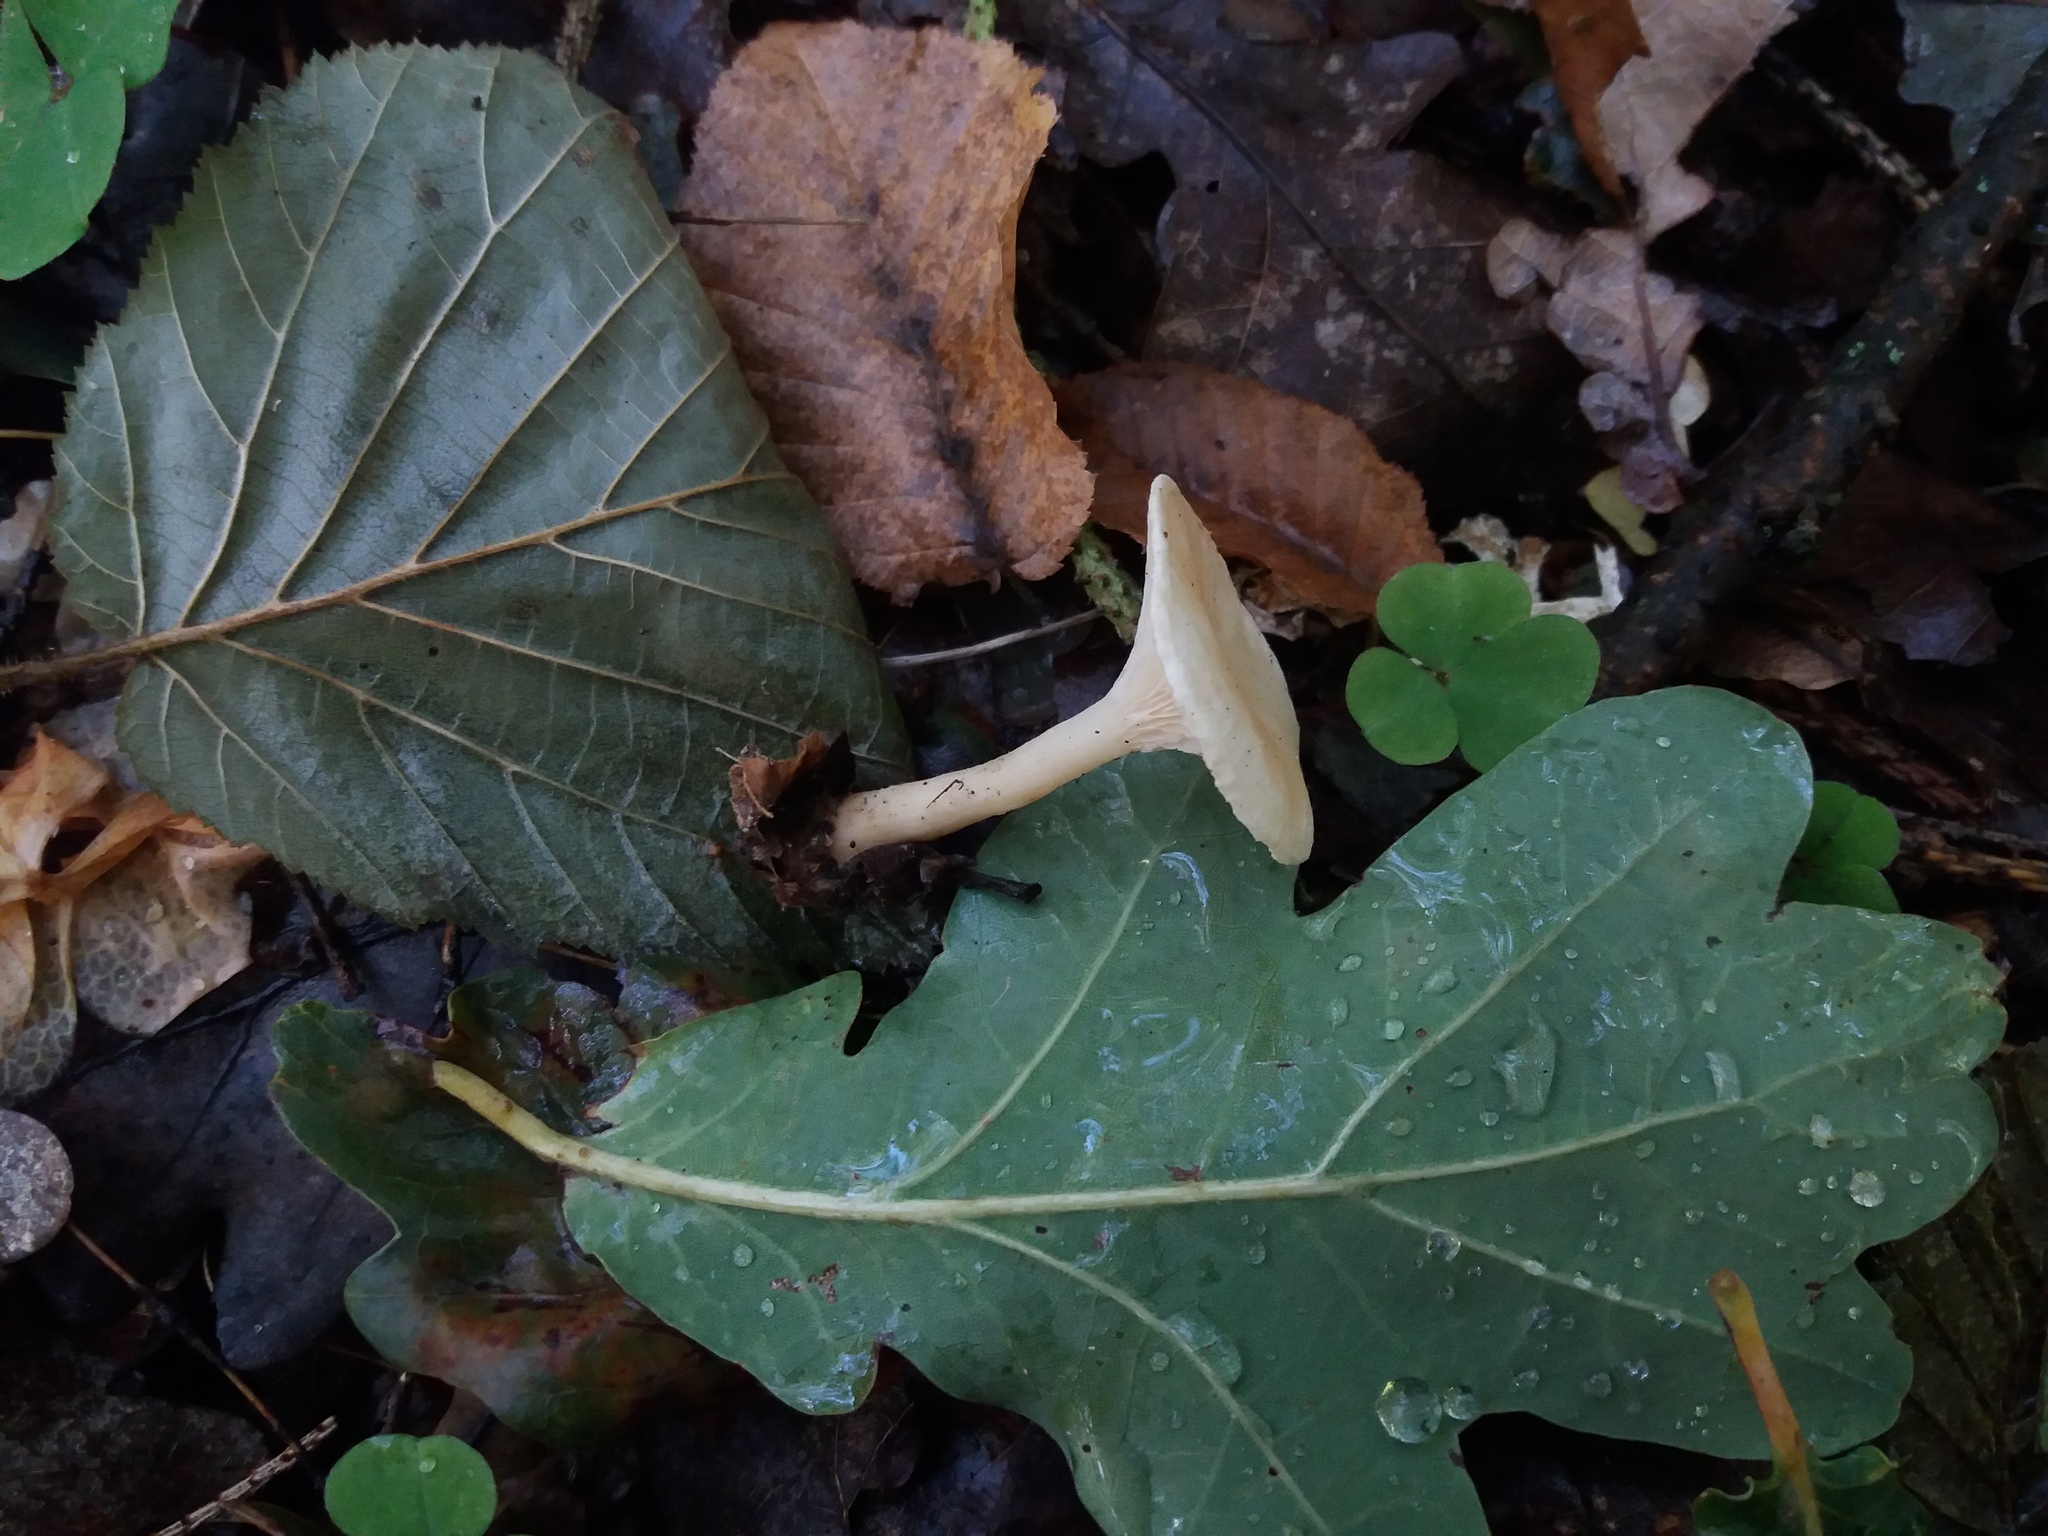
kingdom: Fungi
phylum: Basidiomycota
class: Agaricomycetes
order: Agaricales
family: Tricholomataceae
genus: Infundibulicybe
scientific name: Infundibulicybe gibba
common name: Common funnel
